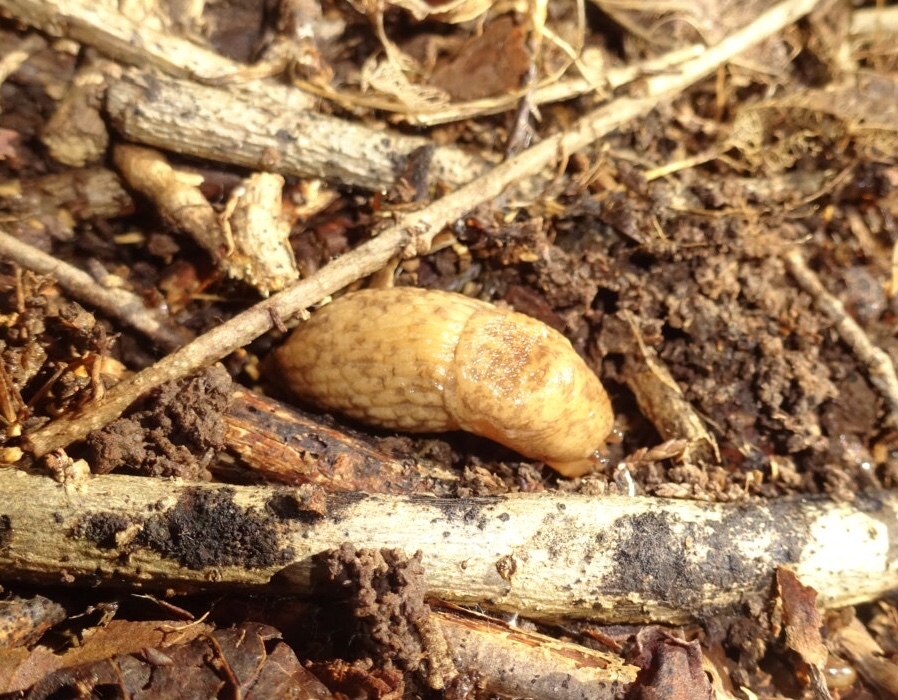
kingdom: Animalia
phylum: Mollusca
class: Gastropoda
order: Stylommatophora
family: Agriolimacidae
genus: Deroceras
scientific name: Deroceras reticulatum
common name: Gray field slug
